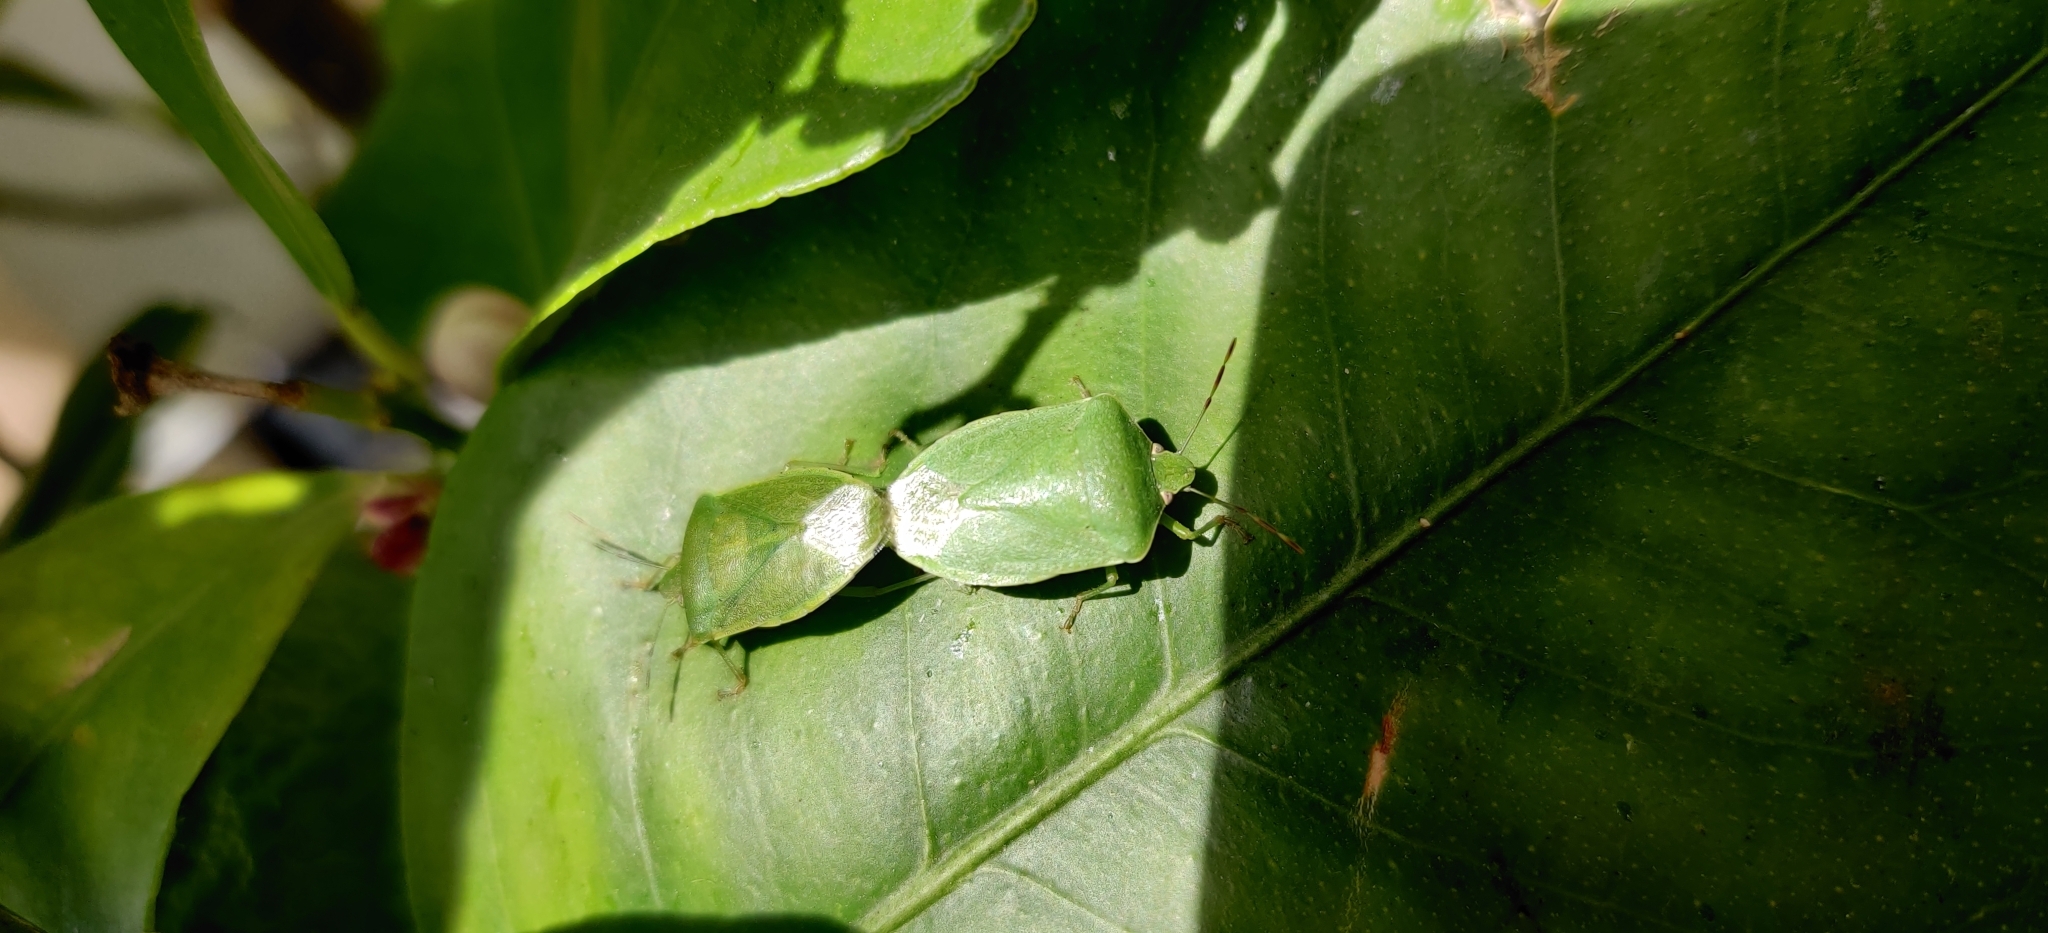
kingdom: Animalia
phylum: Arthropoda
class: Insecta
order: Hemiptera
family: Pentatomidae
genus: Nezara
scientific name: Nezara viridula
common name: Southern green stink bug
